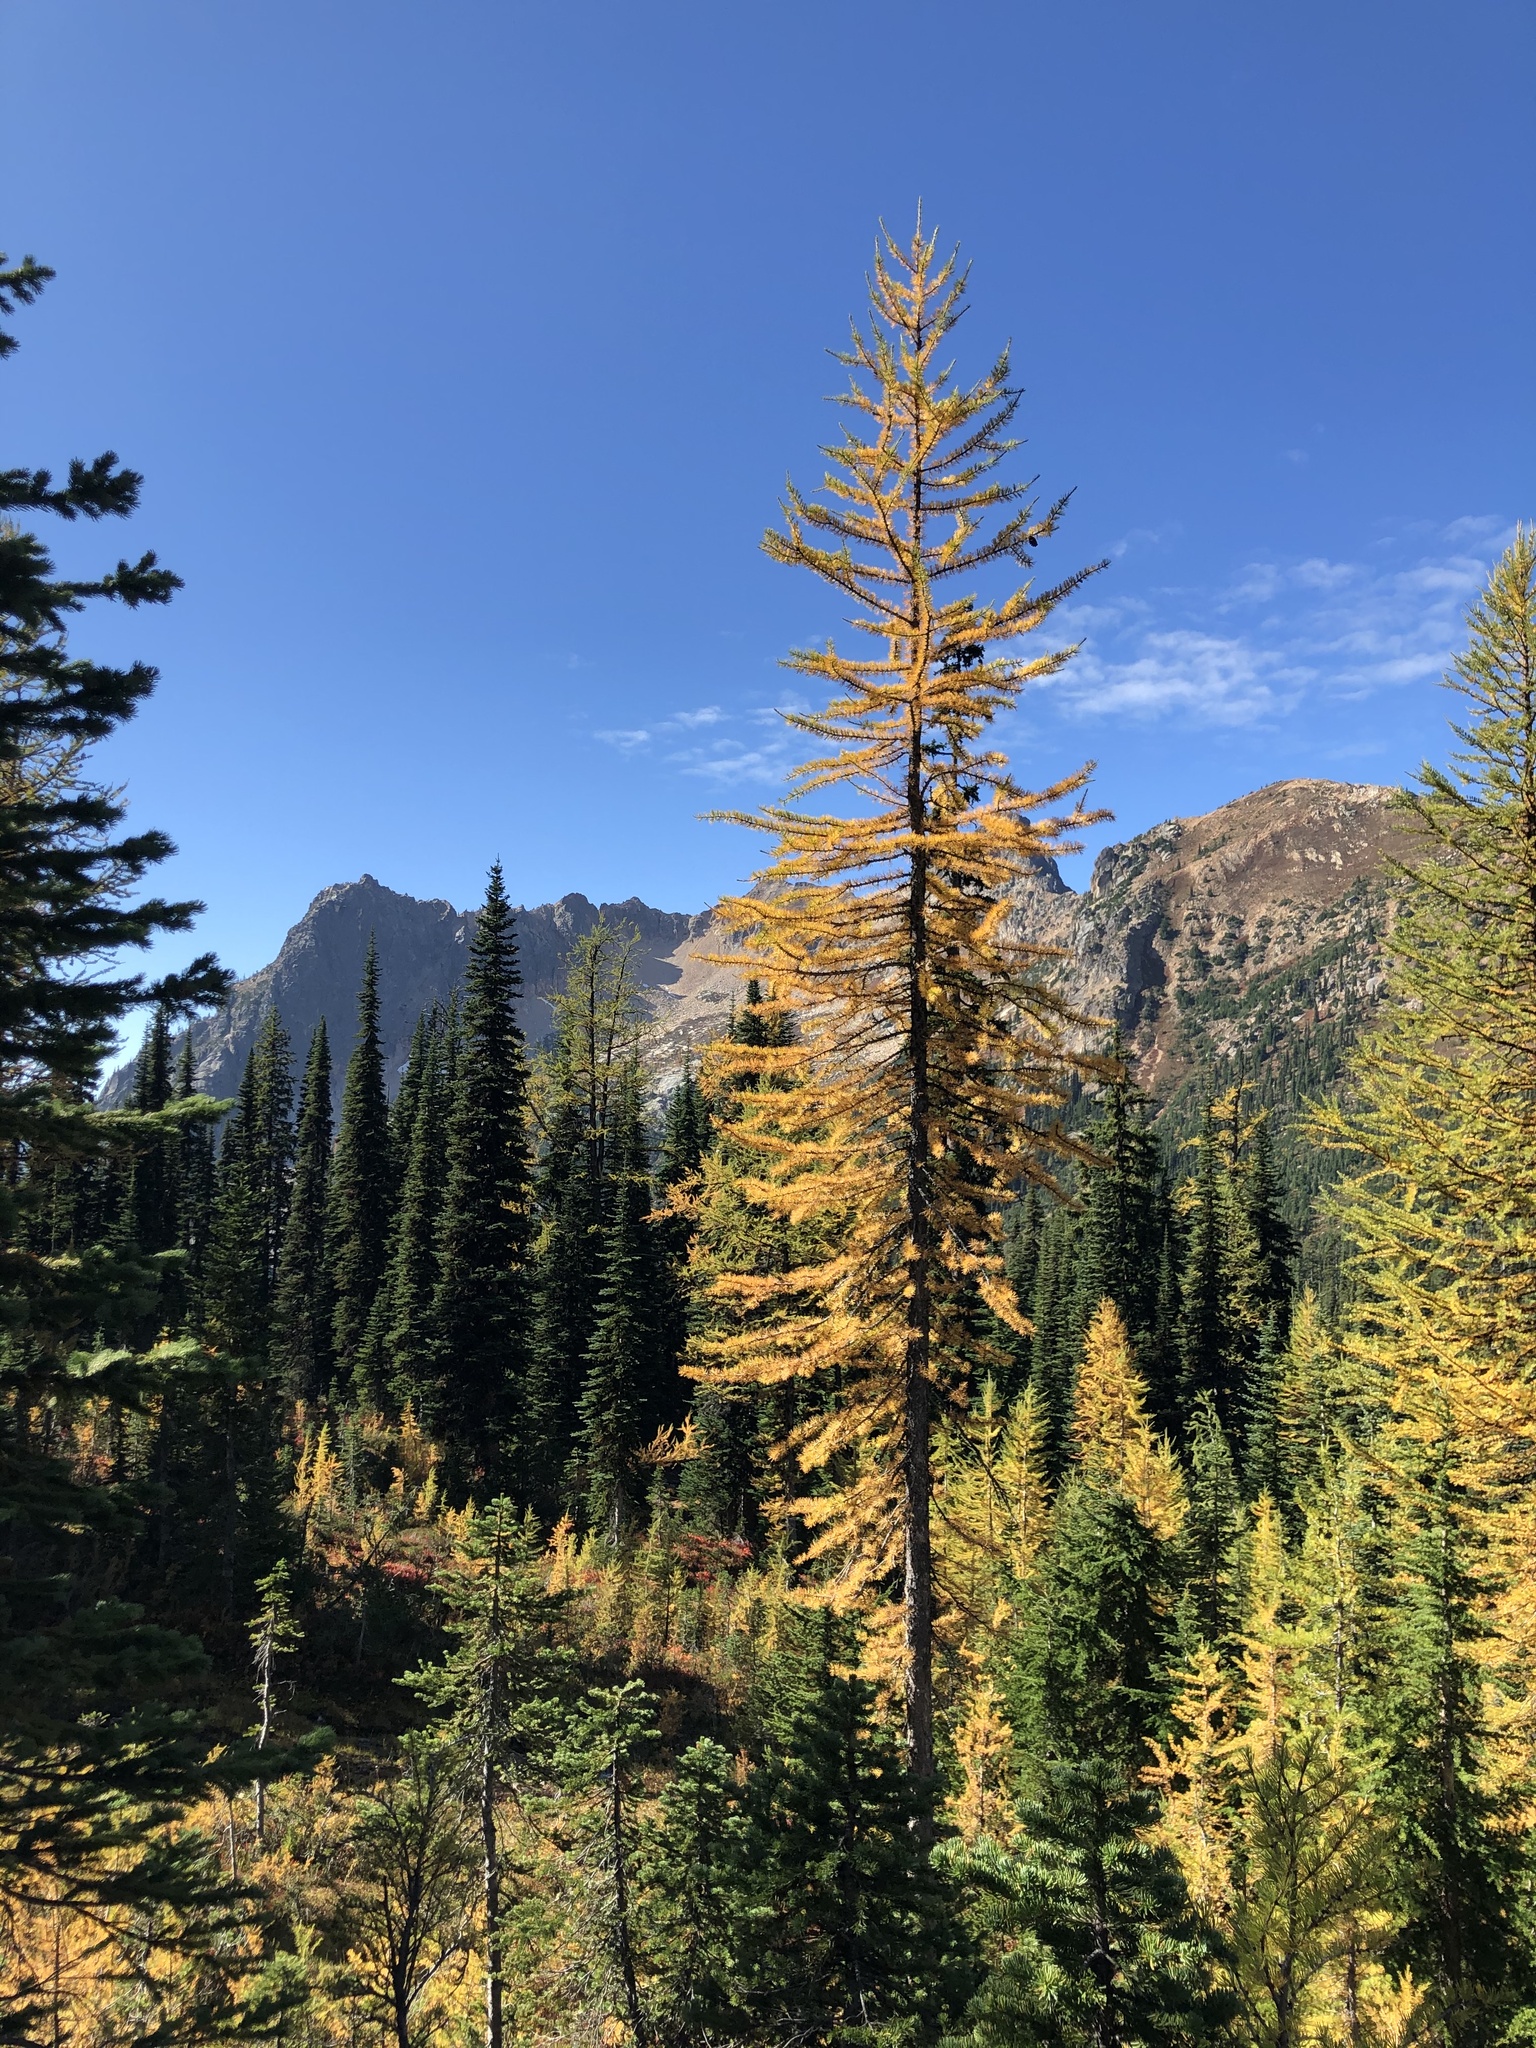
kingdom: Plantae
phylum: Tracheophyta
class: Pinopsida
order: Pinales
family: Pinaceae
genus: Larix
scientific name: Larix lyallii
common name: Alpine larch
